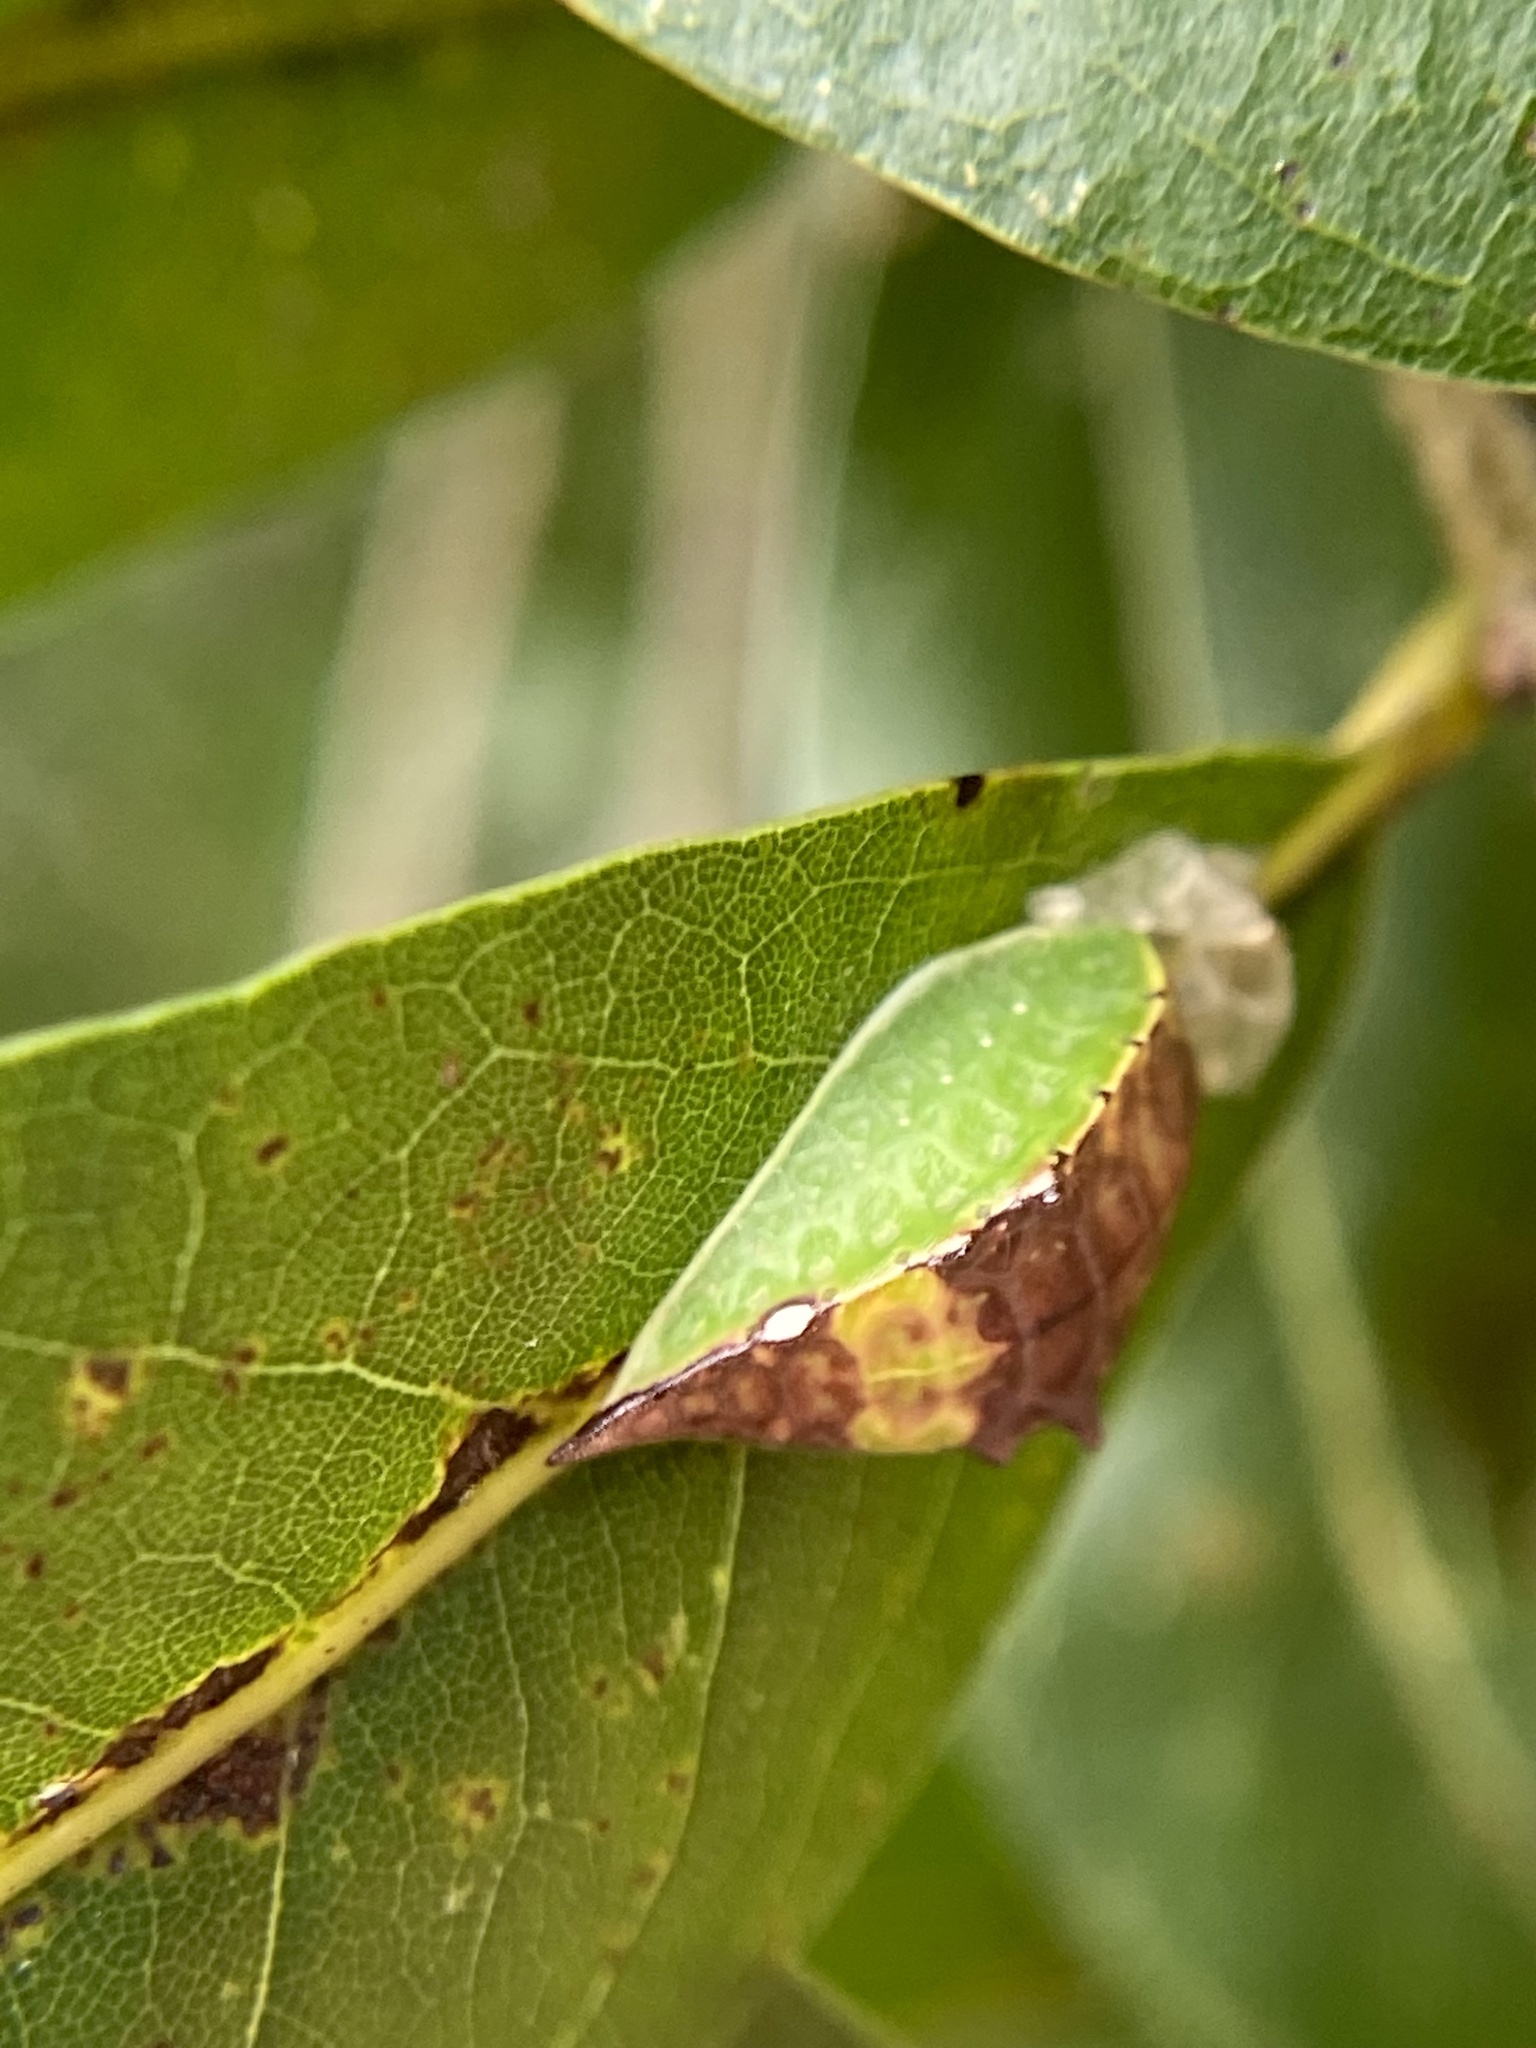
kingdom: Animalia
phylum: Arthropoda
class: Insecta
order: Lepidoptera
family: Limacodidae
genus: Prolimacodes
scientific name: Prolimacodes badia
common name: Skiff moth
